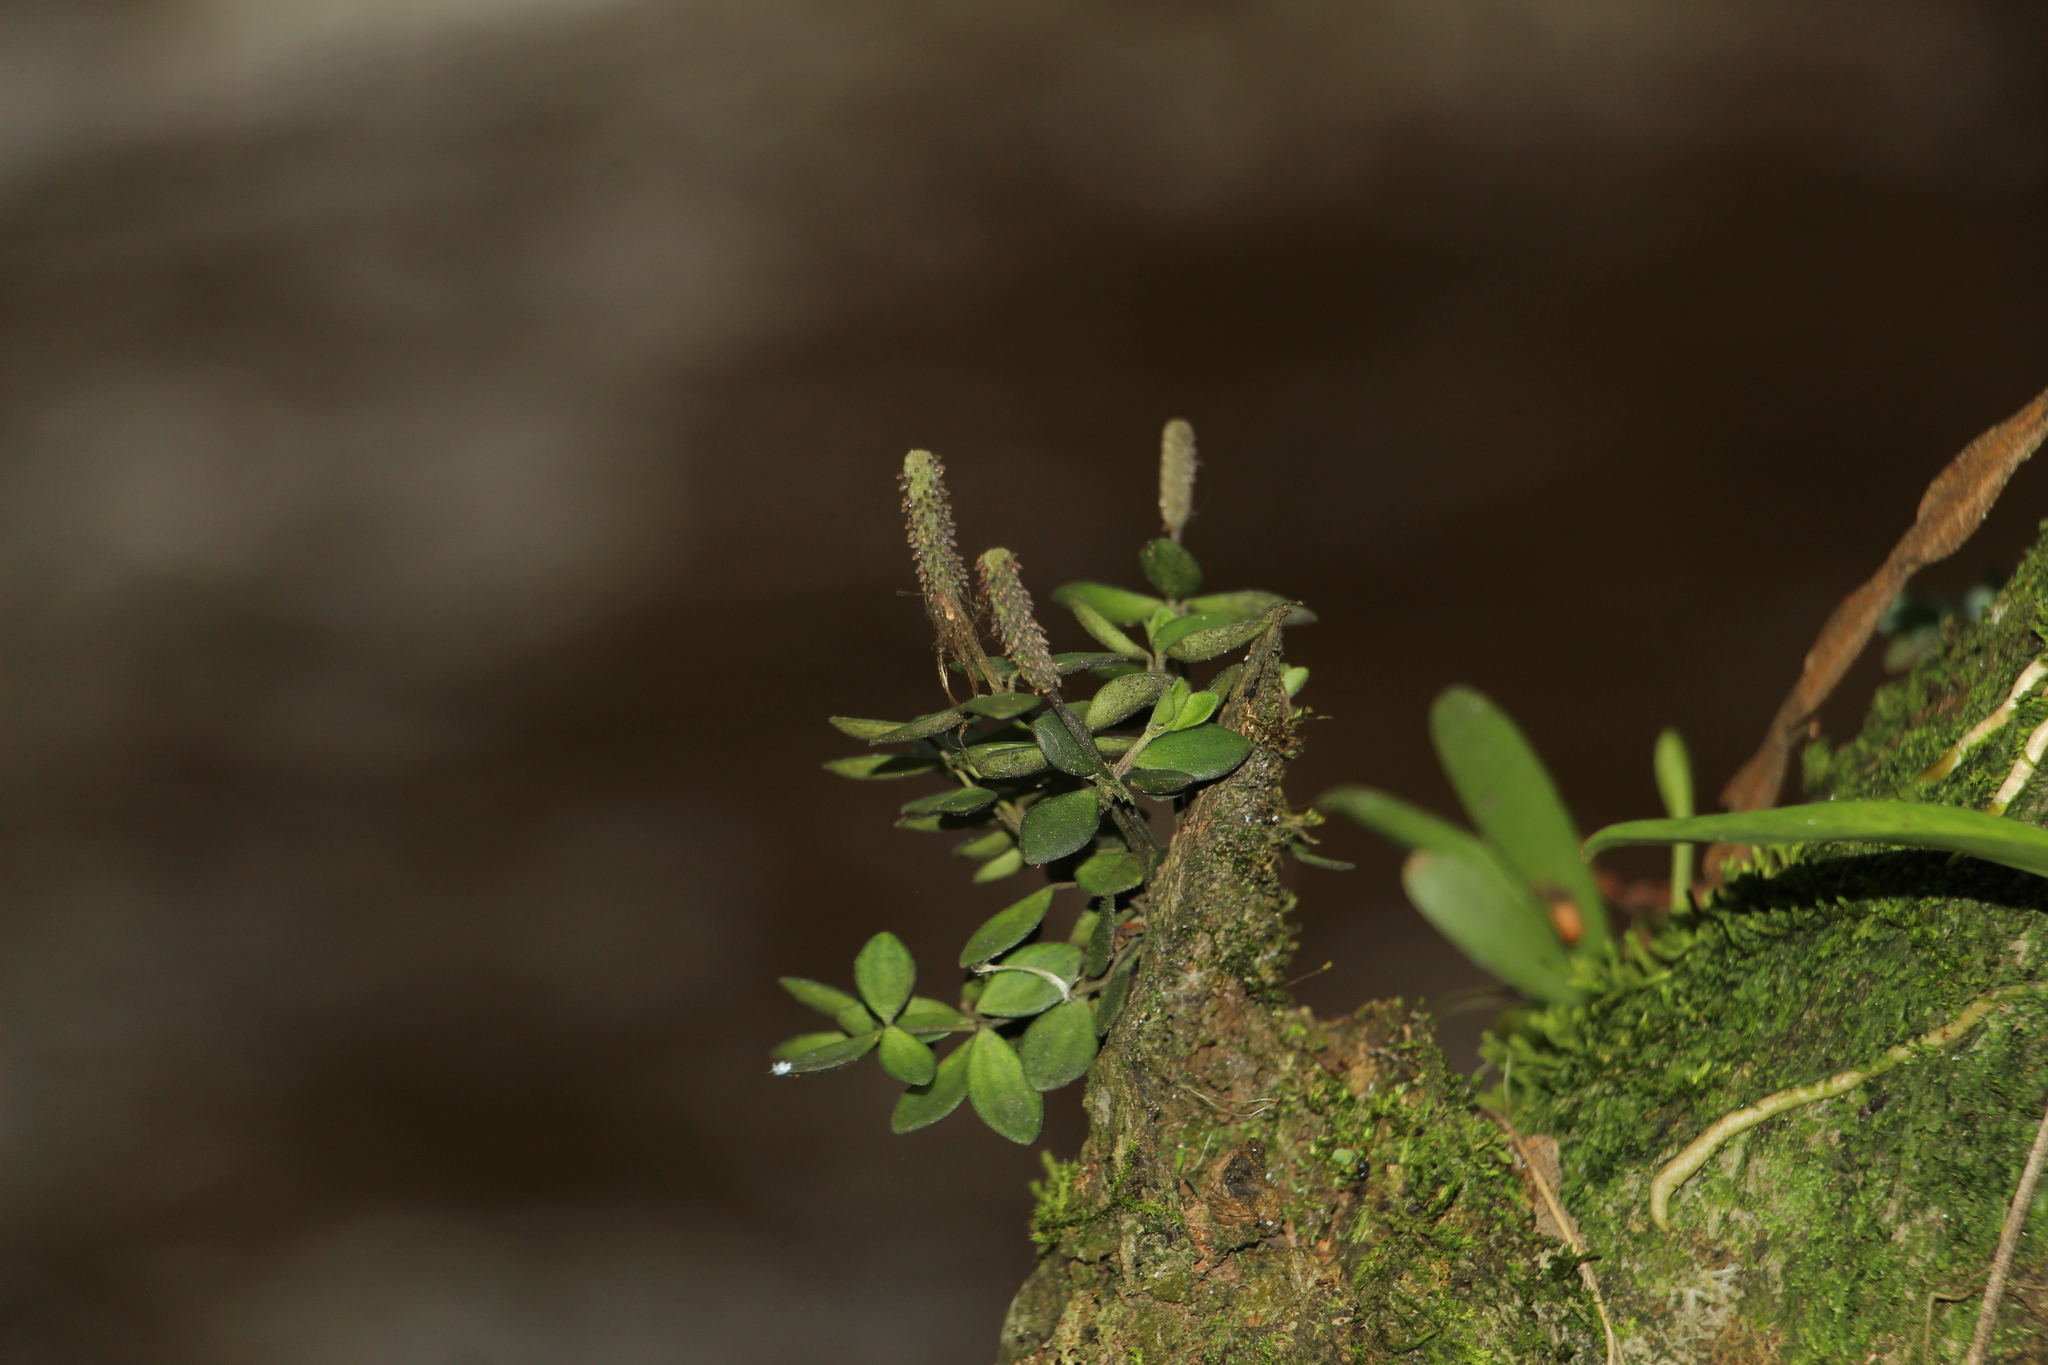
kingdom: Plantae
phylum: Tracheophyta
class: Magnoliopsida
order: Piperales
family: Piperaceae
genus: Peperomia
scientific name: Peperomia tetraphylla
